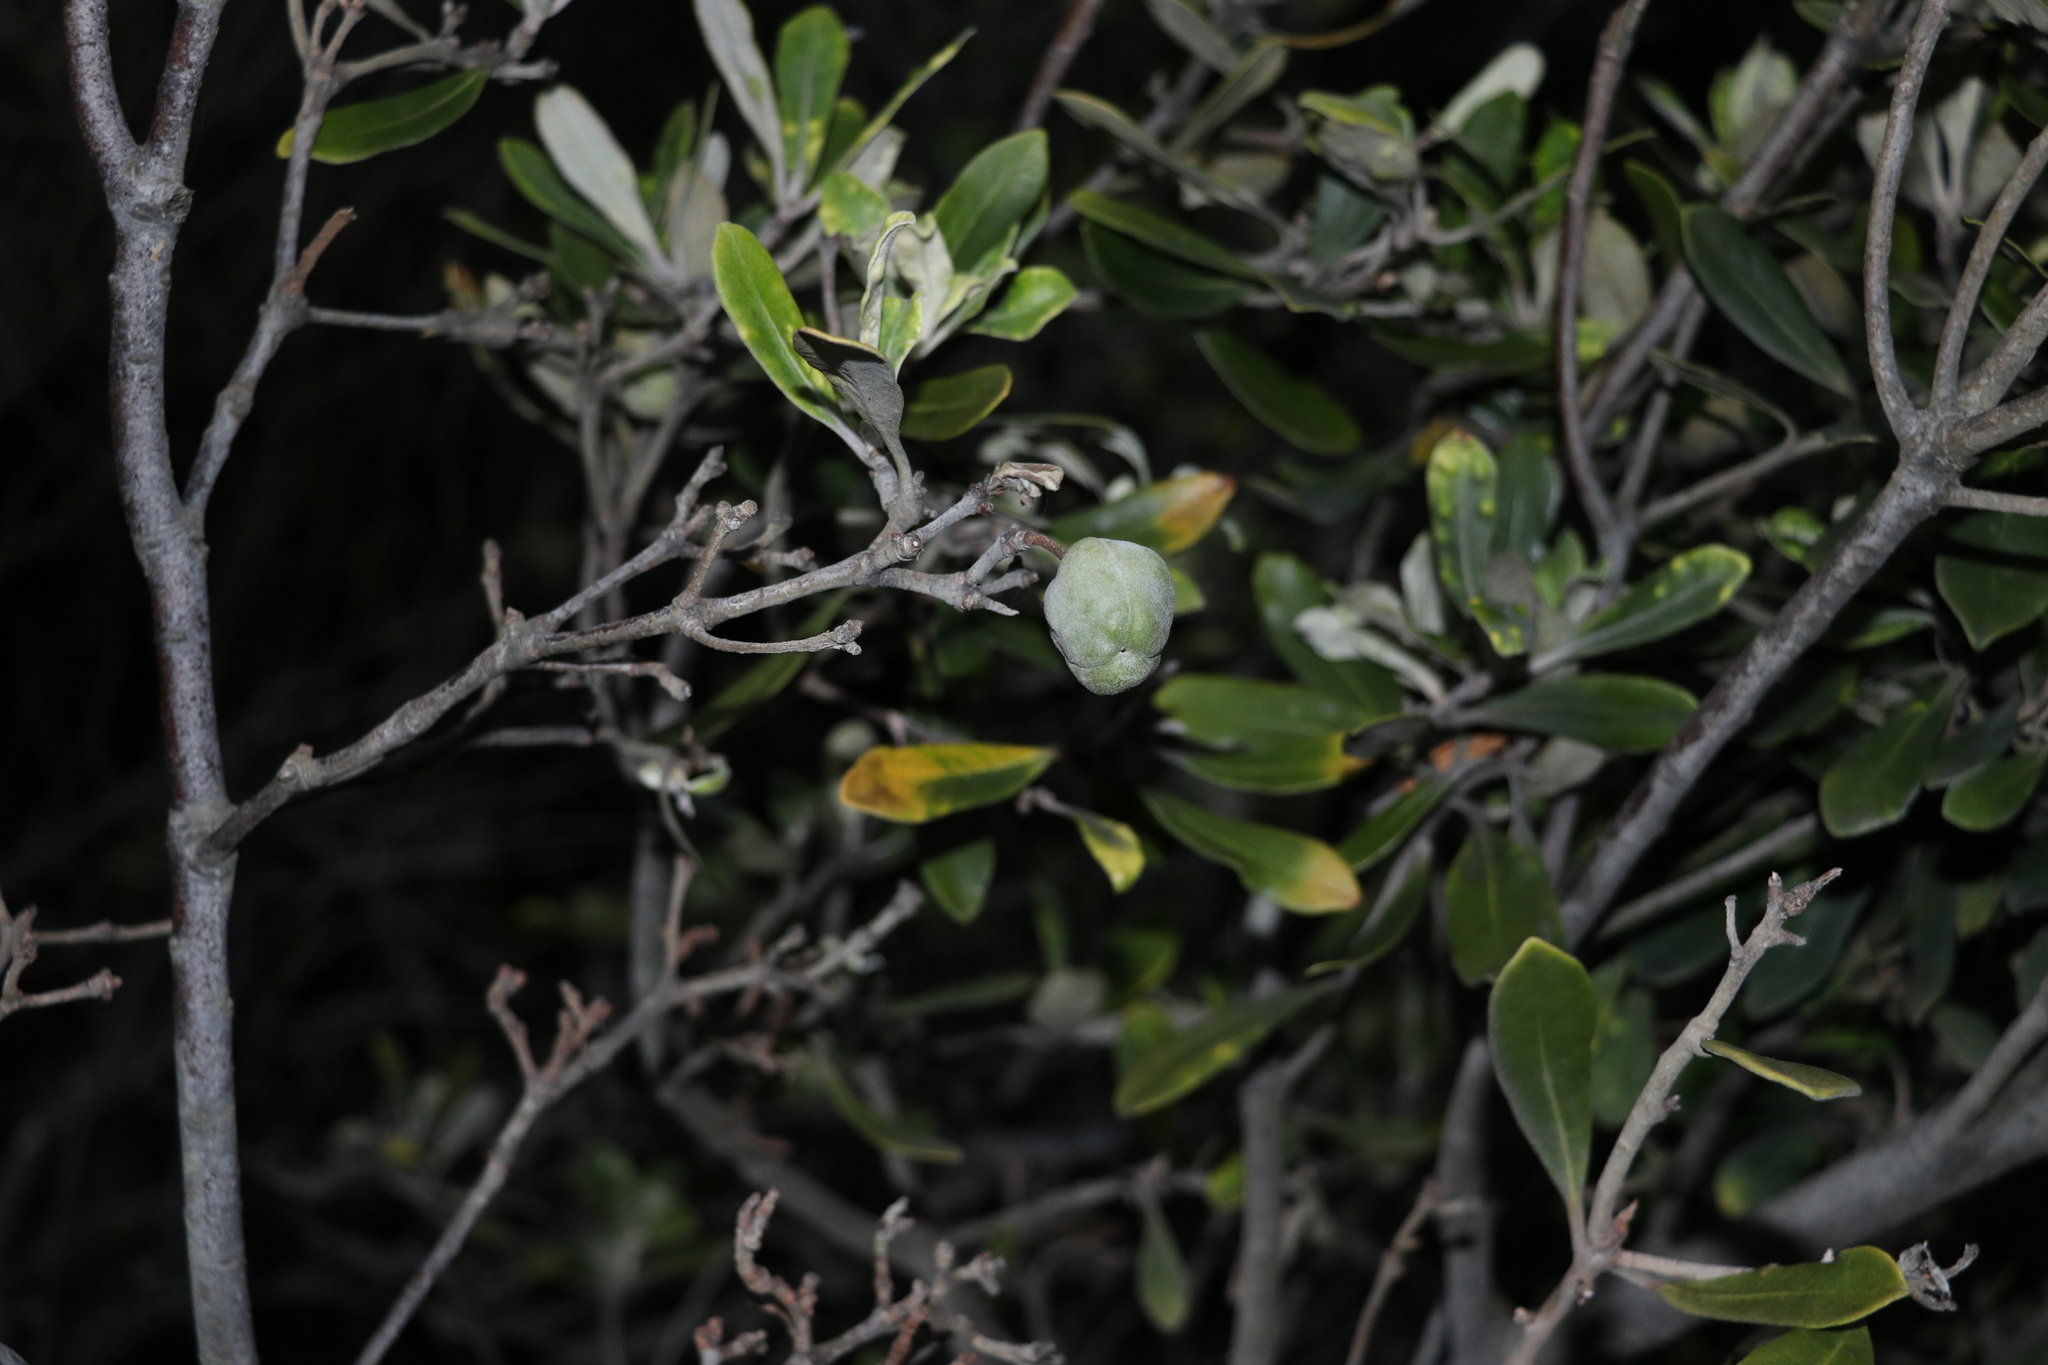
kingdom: Plantae
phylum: Tracheophyta
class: Magnoliopsida
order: Apiales
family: Pittosporaceae
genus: Pittosporum
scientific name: Pittosporum crassifolium
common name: Karo
